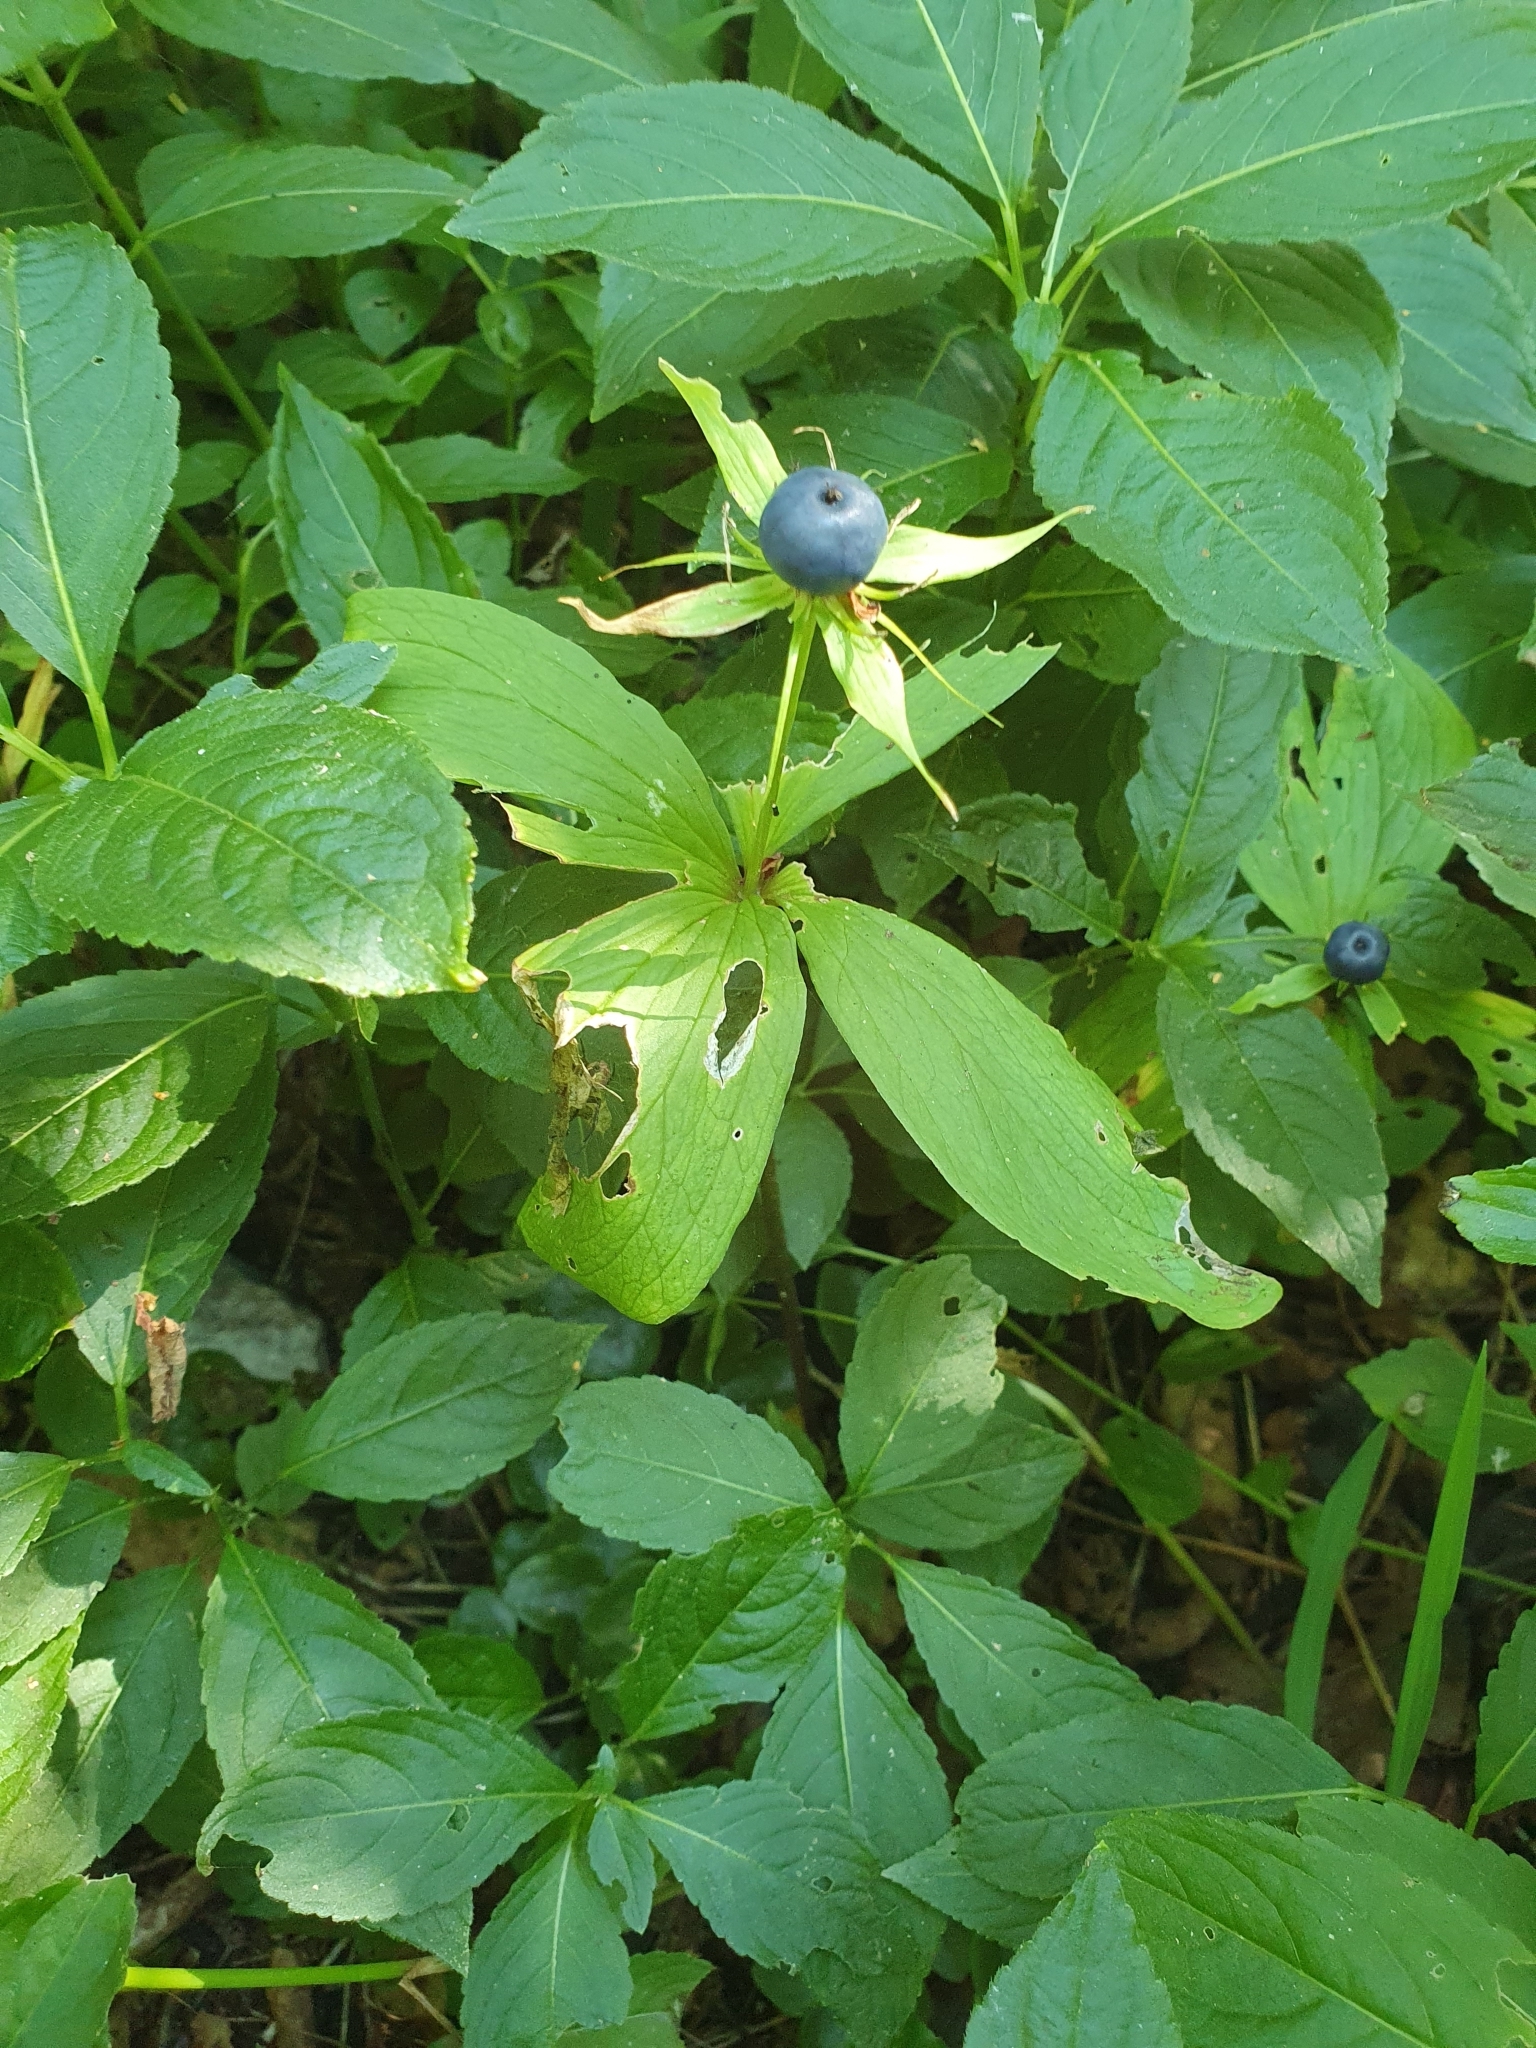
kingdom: Plantae
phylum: Tracheophyta
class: Liliopsida
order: Liliales
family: Melanthiaceae
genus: Paris
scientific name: Paris quadrifolia
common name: Herb-paris
